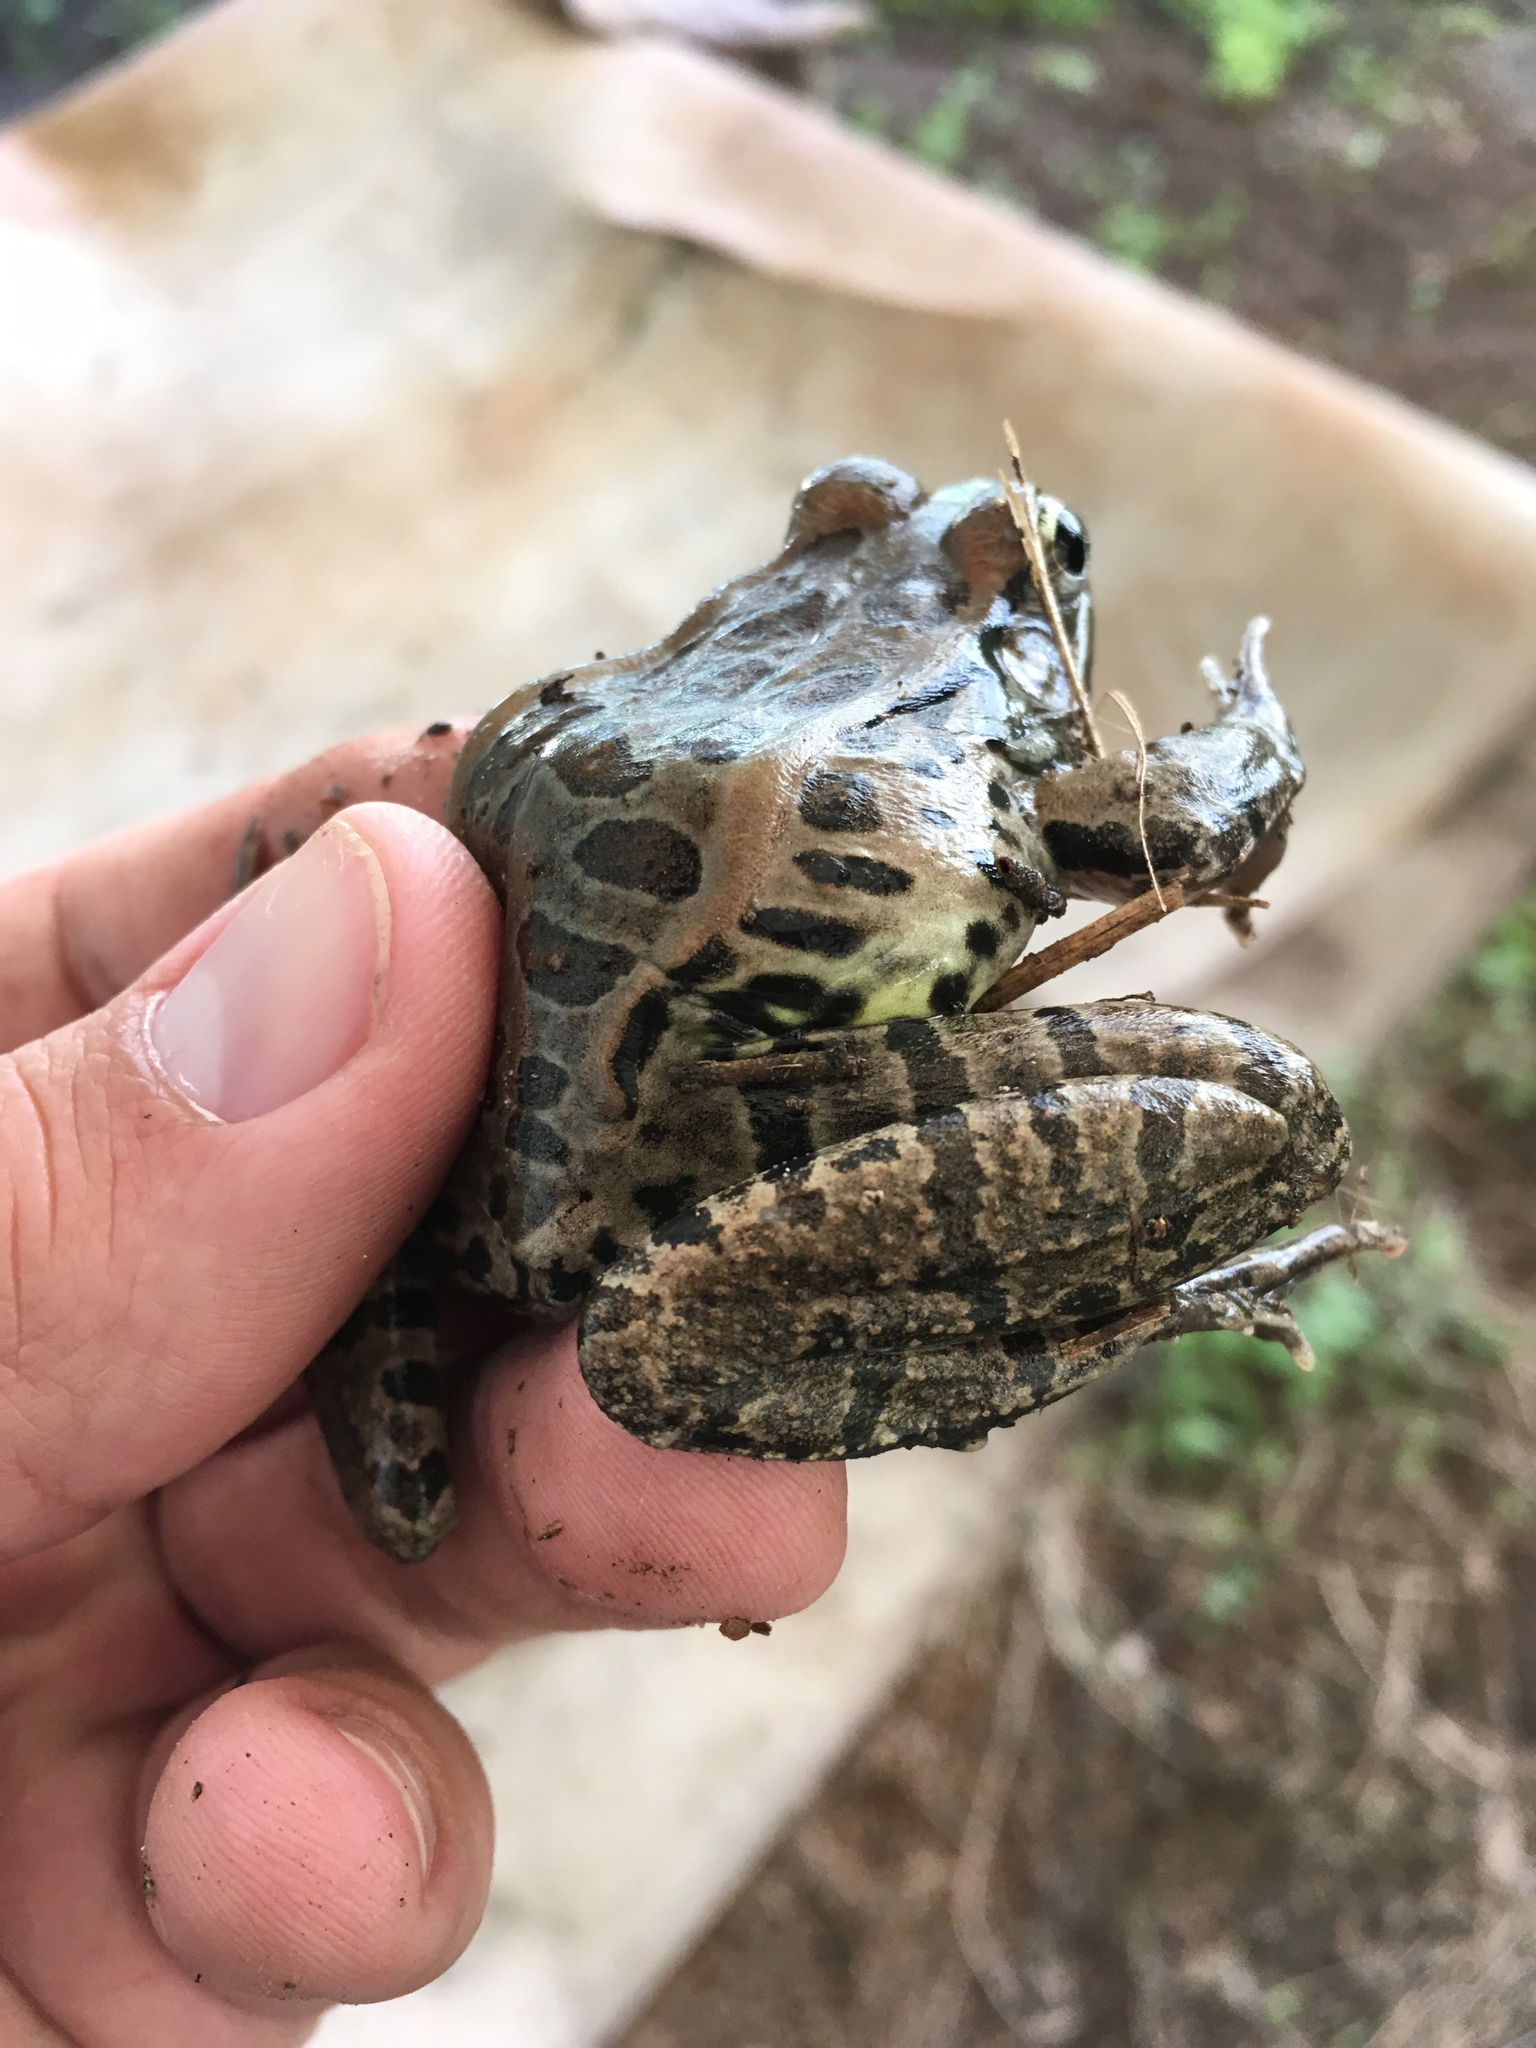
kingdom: Animalia
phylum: Chordata
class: Amphibia
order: Anura
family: Ranidae
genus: Lithobates
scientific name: Lithobates berlandieri
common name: Rio grande leopard frog
